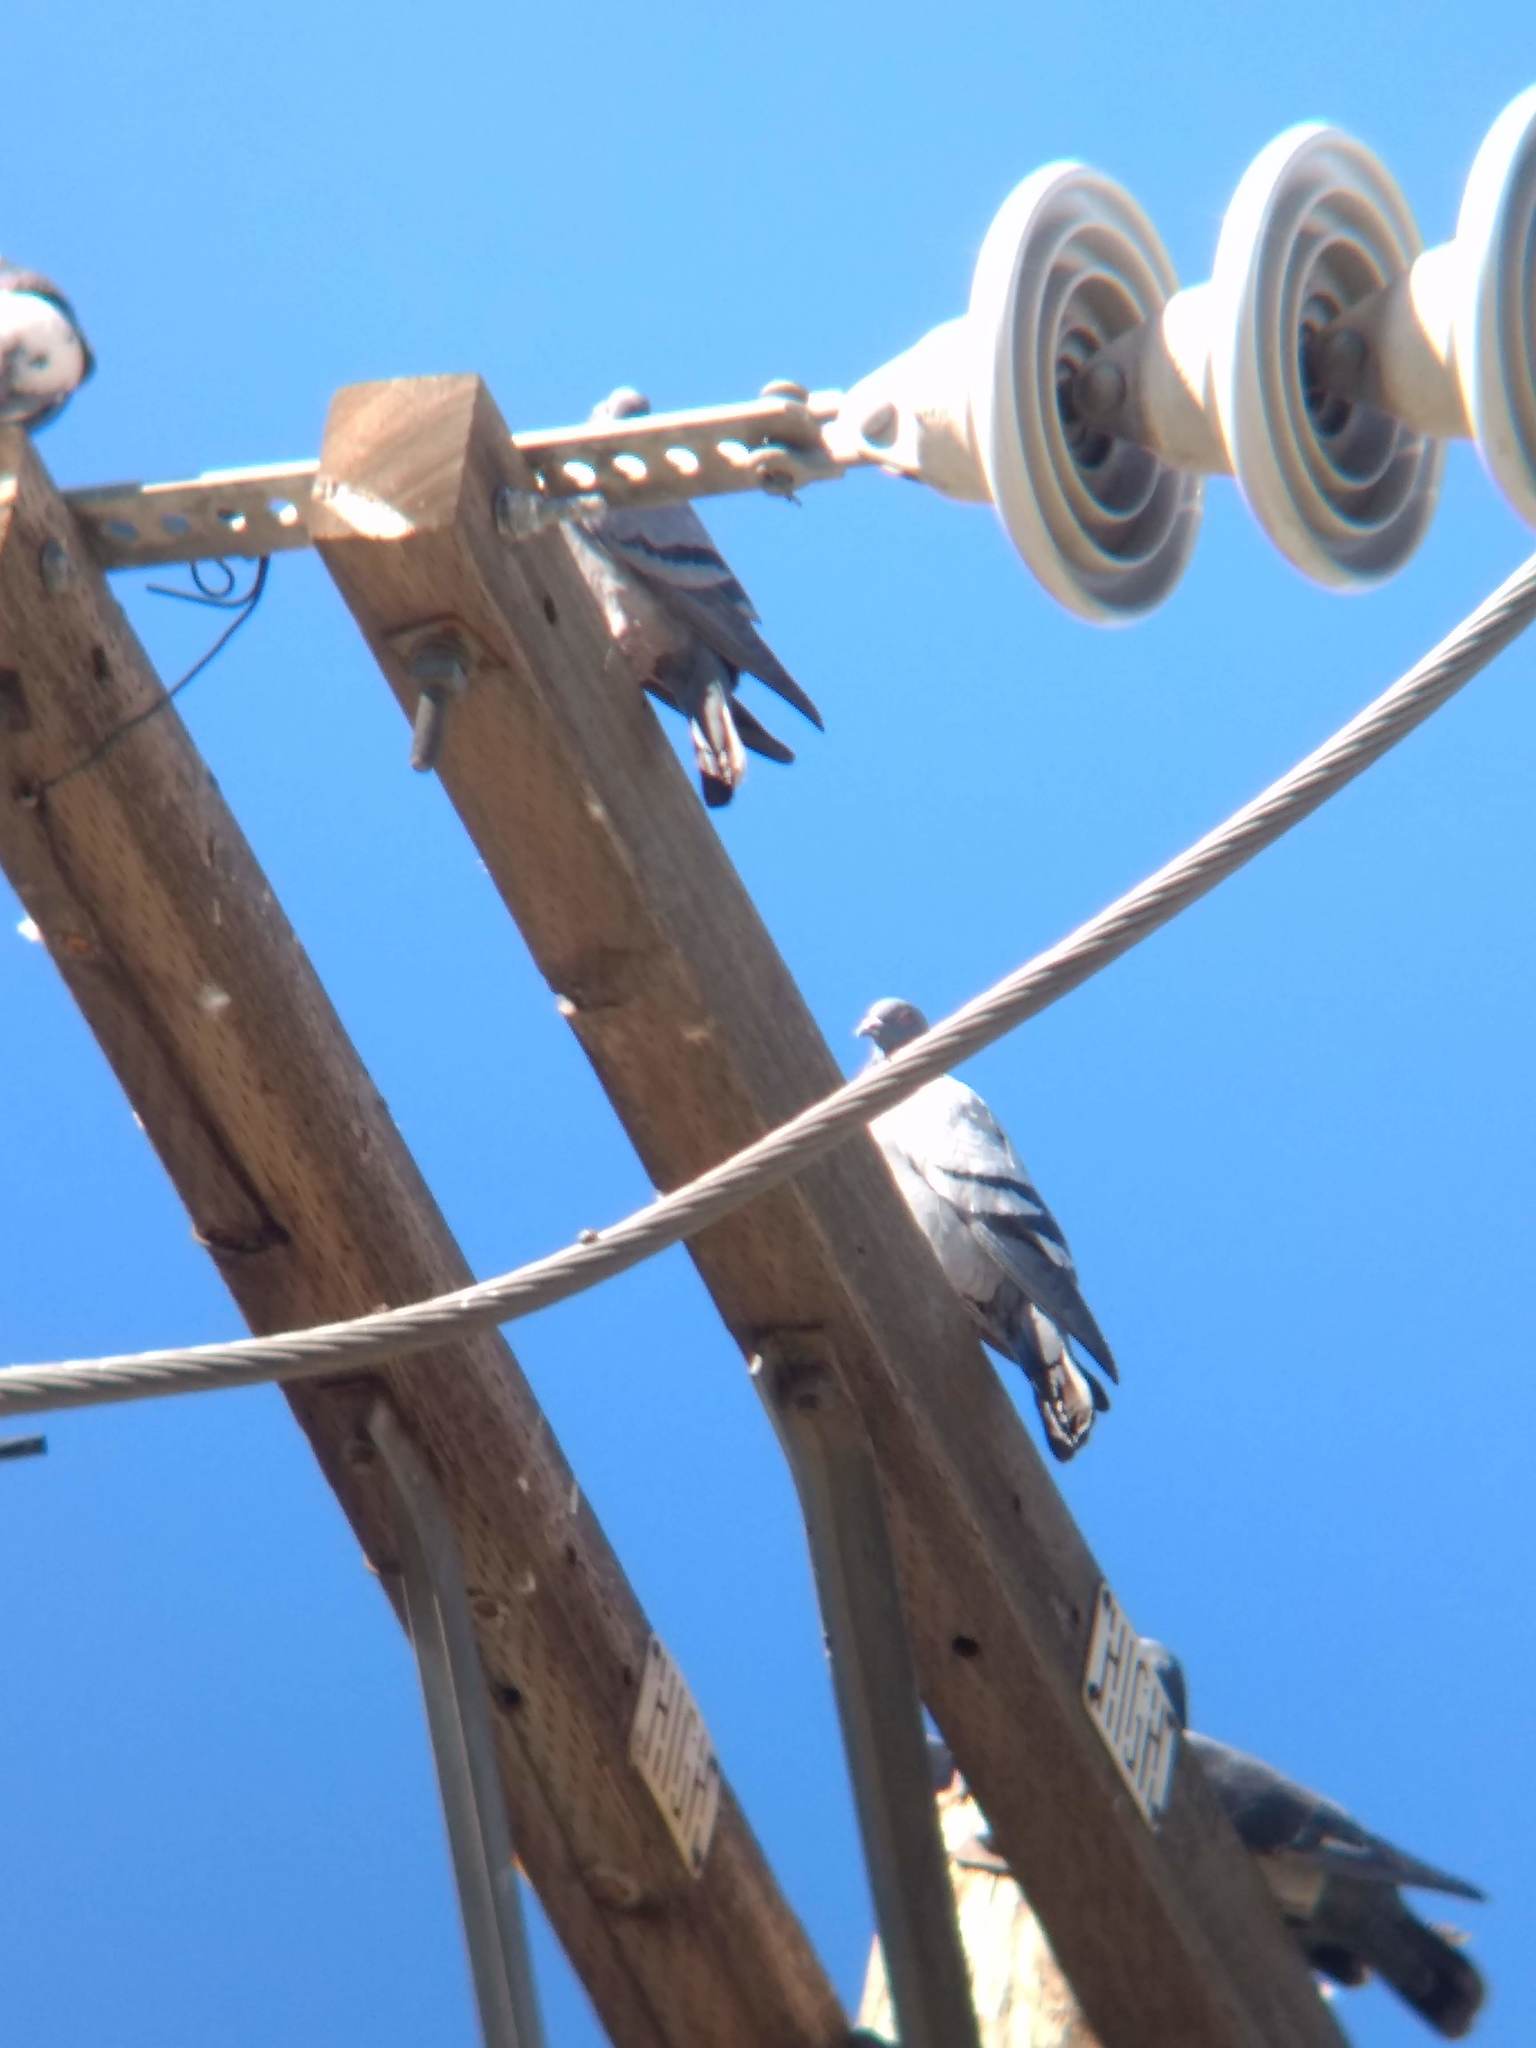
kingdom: Animalia
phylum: Chordata
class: Aves
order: Columbiformes
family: Columbidae
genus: Columba
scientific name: Columba livia
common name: Rock pigeon
